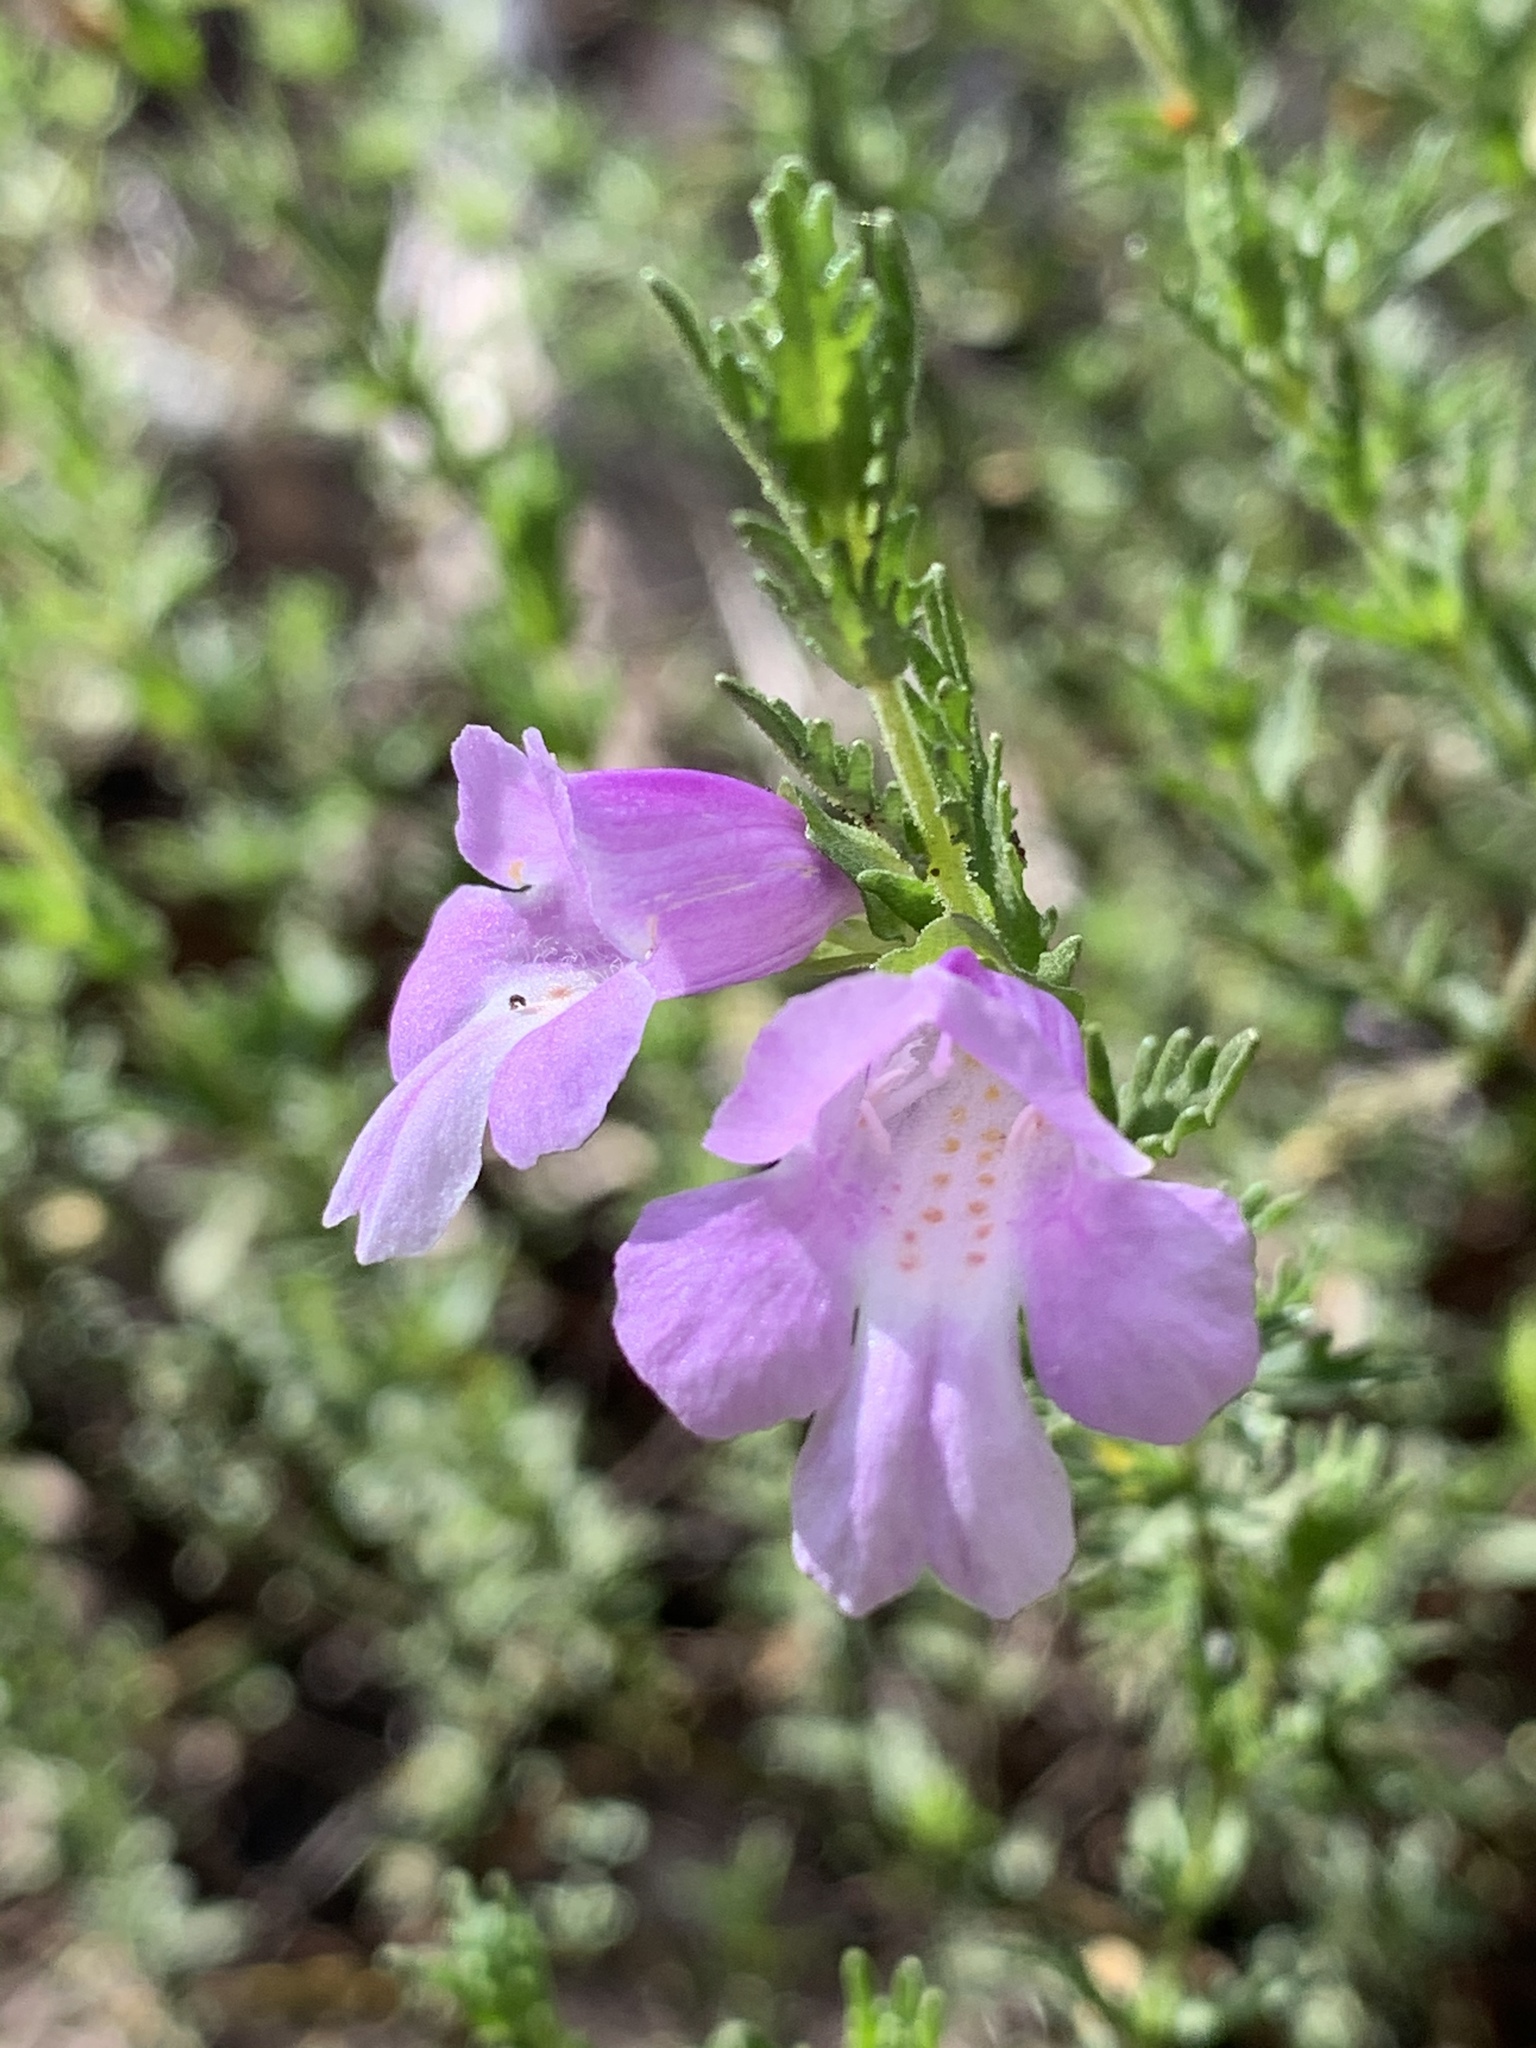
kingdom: Plantae
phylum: Tracheophyta
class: Magnoliopsida
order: Lamiales
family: Lamiaceae
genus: Prostanthera
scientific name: Prostanthera cryptandroides
